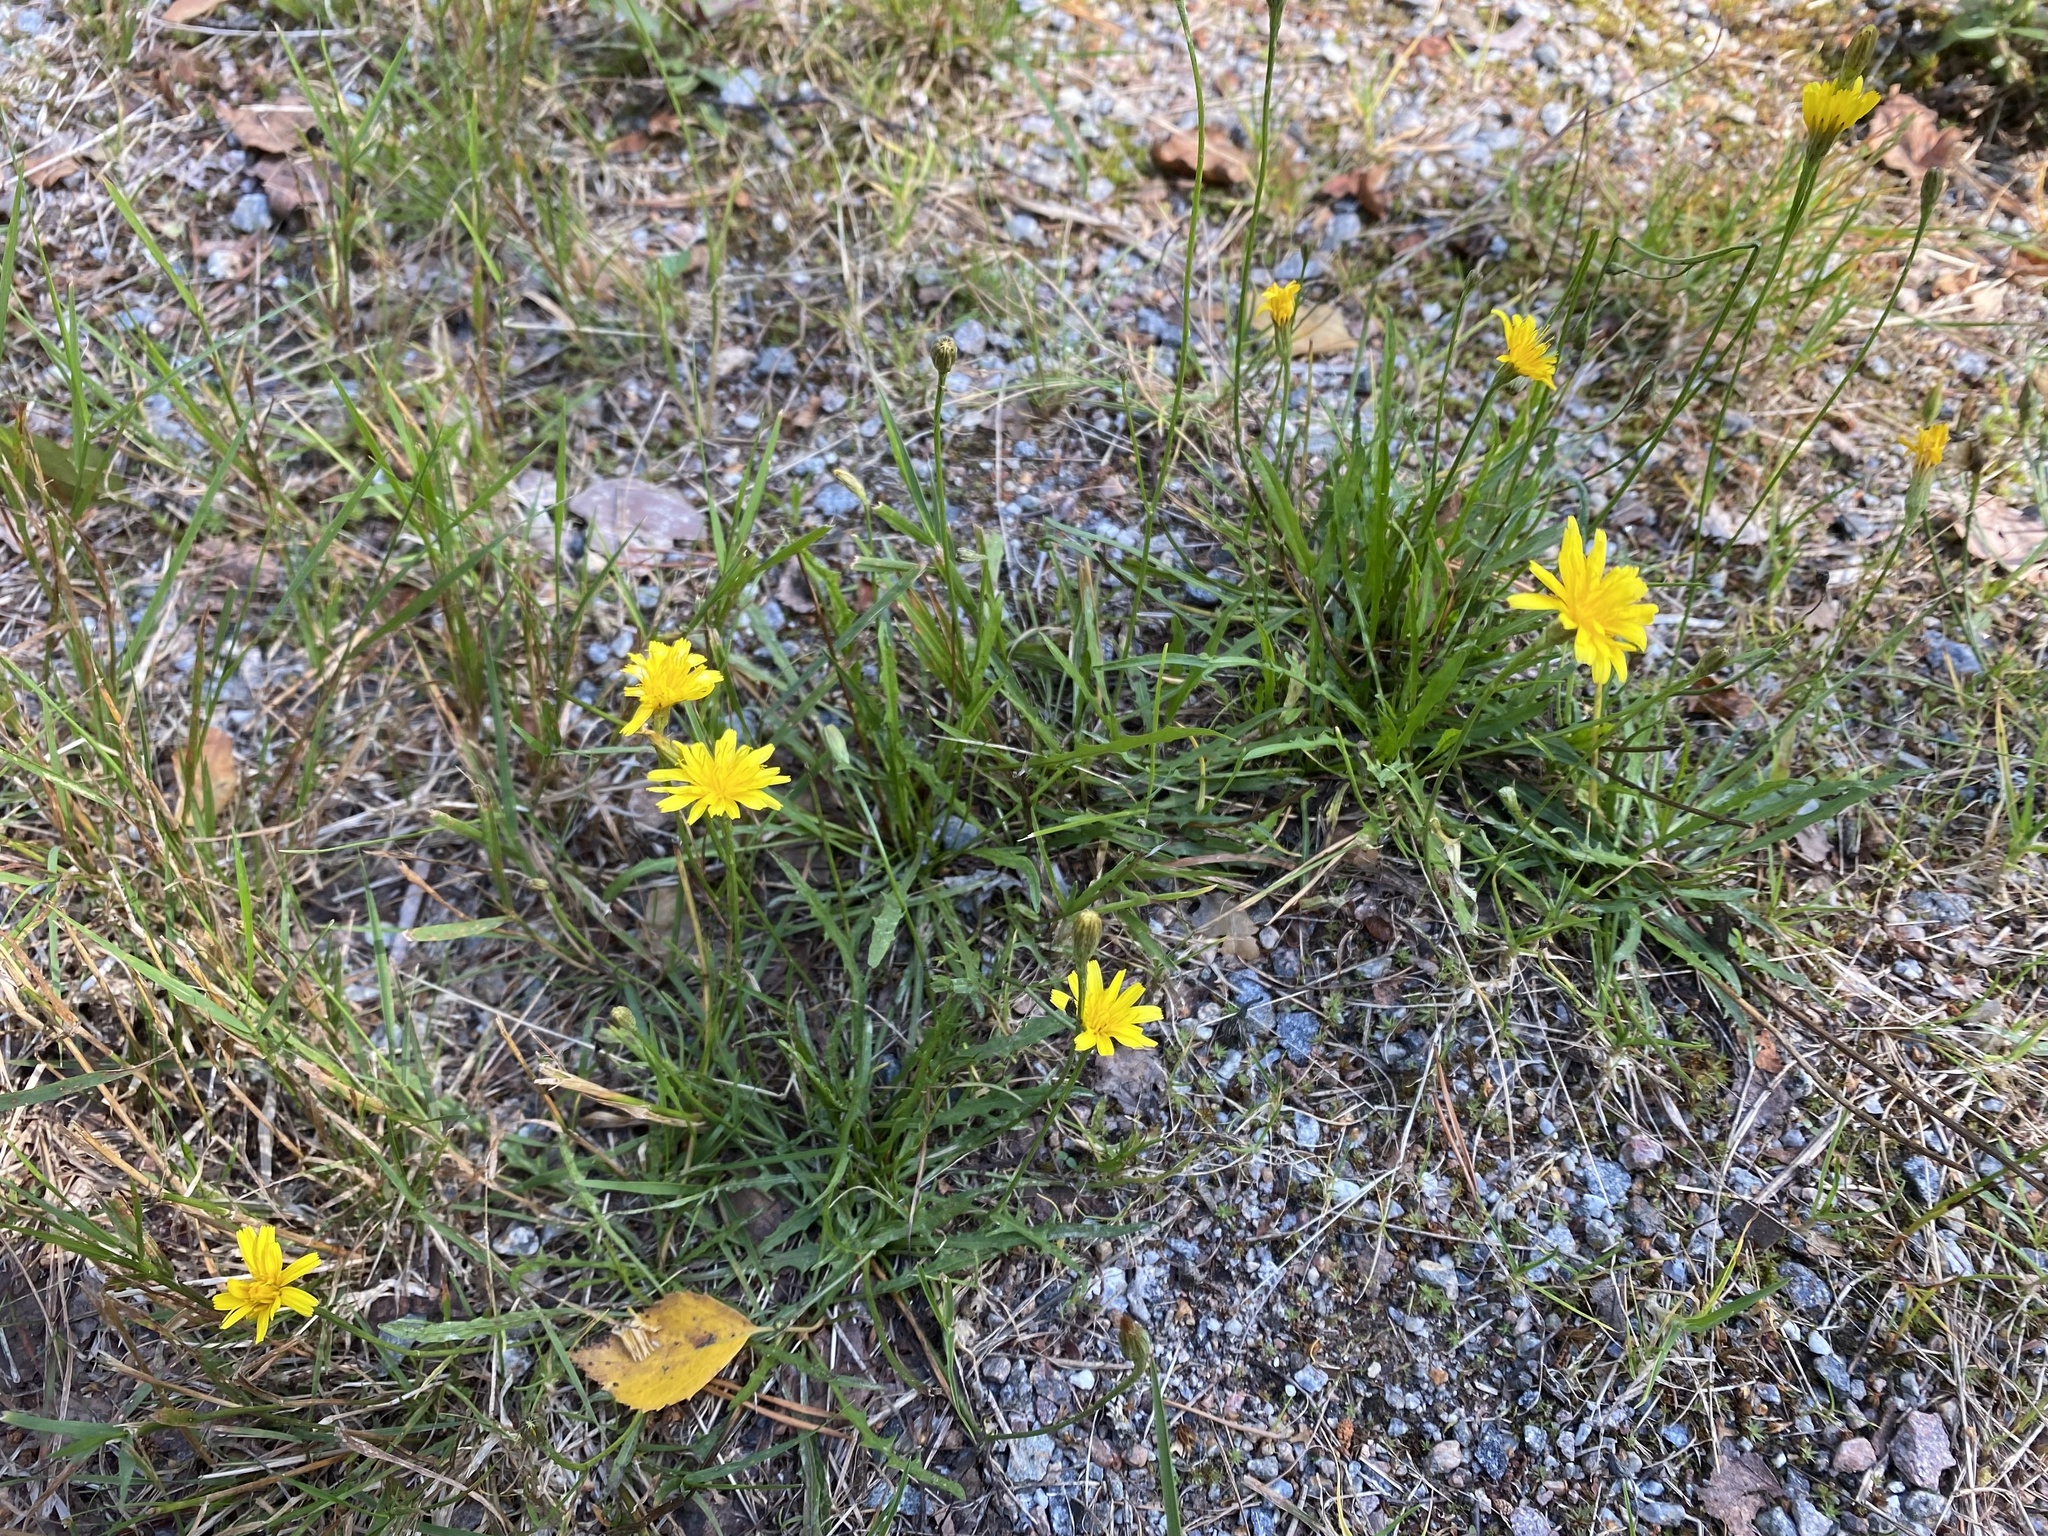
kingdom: Plantae
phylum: Tracheophyta
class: Magnoliopsida
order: Asterales
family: Asteraceae
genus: Scorzoneroides
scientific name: Scorzoneroides autumnalis
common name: Autumn hawkbit
